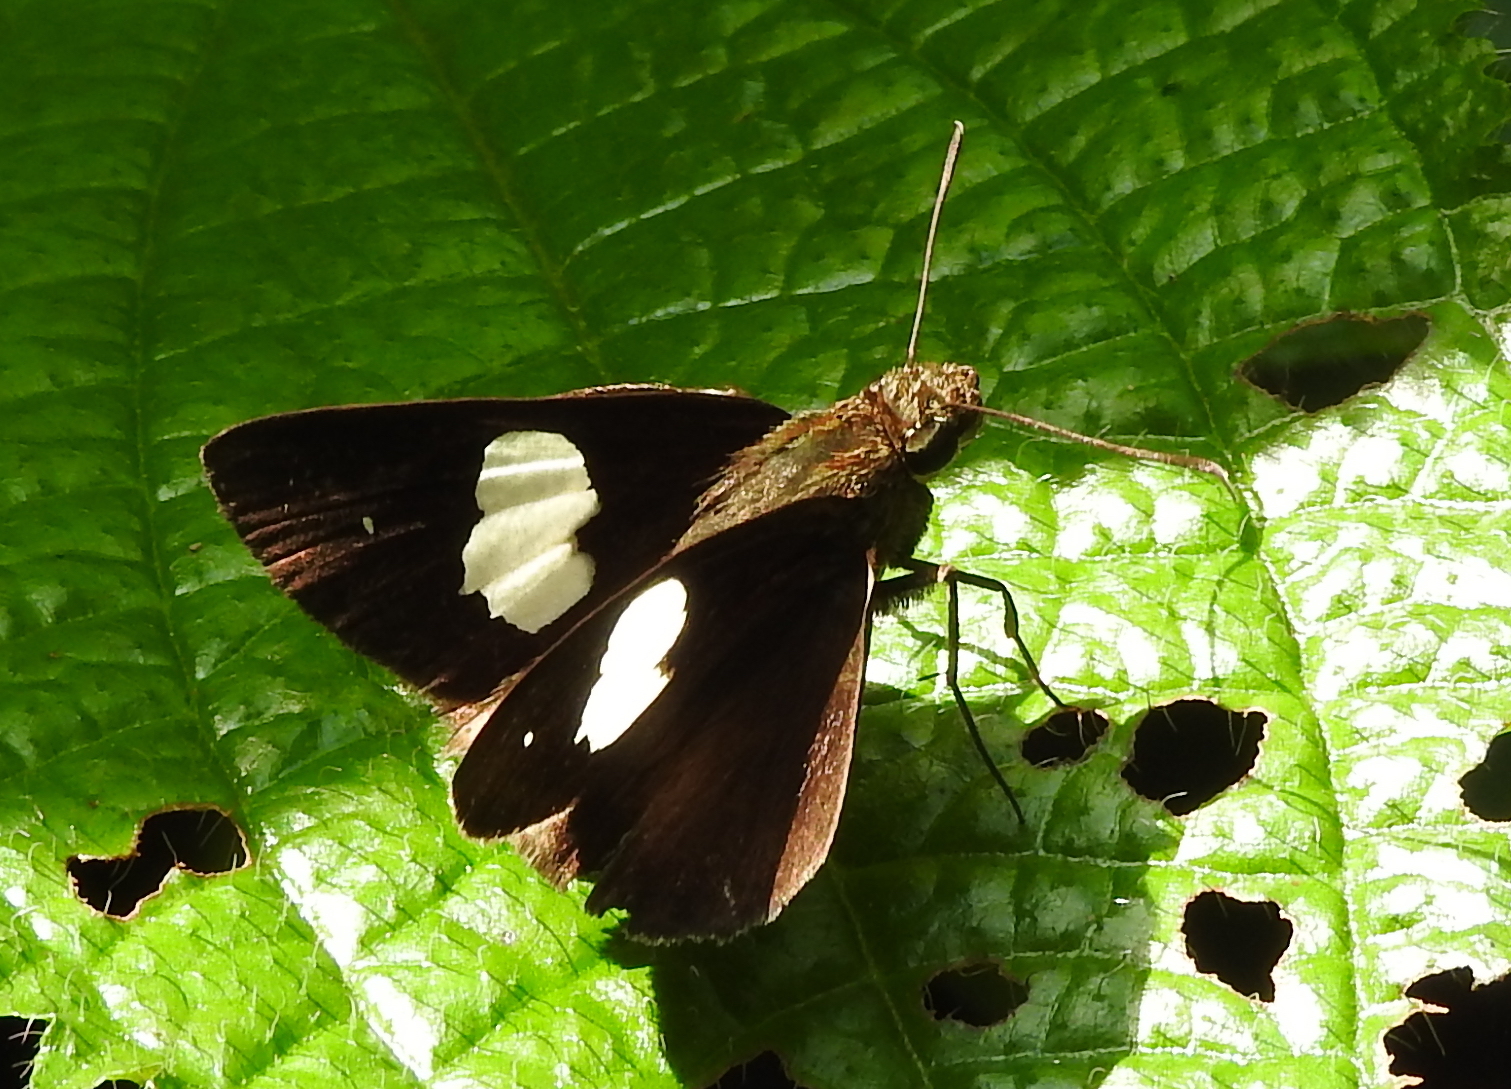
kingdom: Animalia
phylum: Arthropoda
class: Insecta
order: Lepidoptera
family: Hesperiidae
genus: Notocrypta
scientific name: Notocrypta paralysos
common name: Common banded demon
